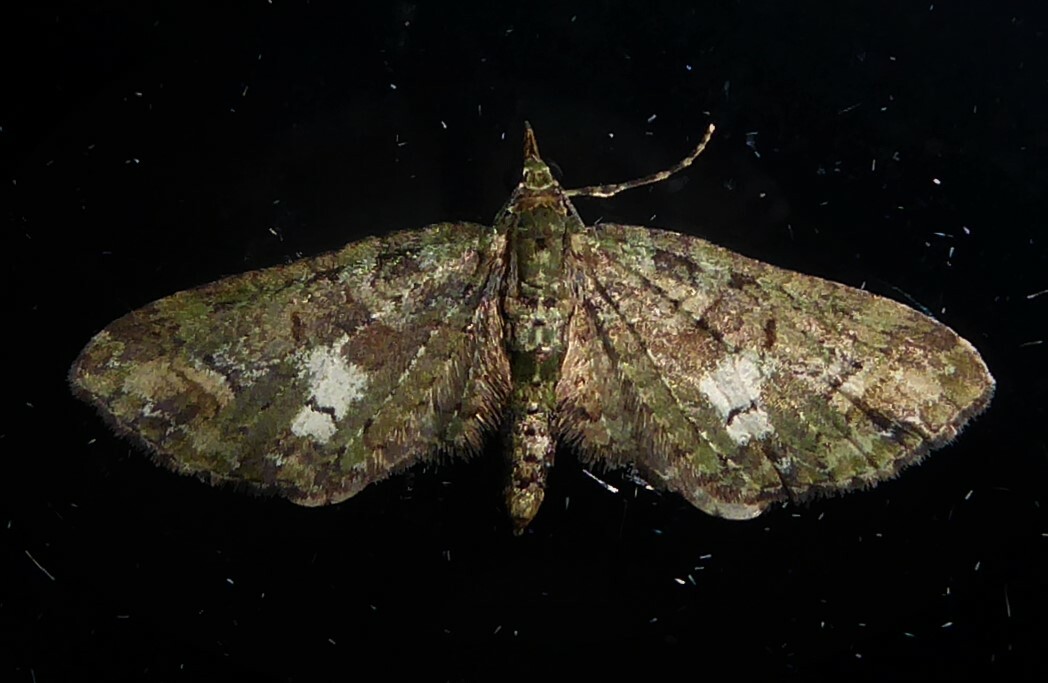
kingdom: Animalia
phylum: Arthropoda
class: Insecta
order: Lepidoptera
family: Geometridae
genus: Idaea
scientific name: Idaea mutanda
